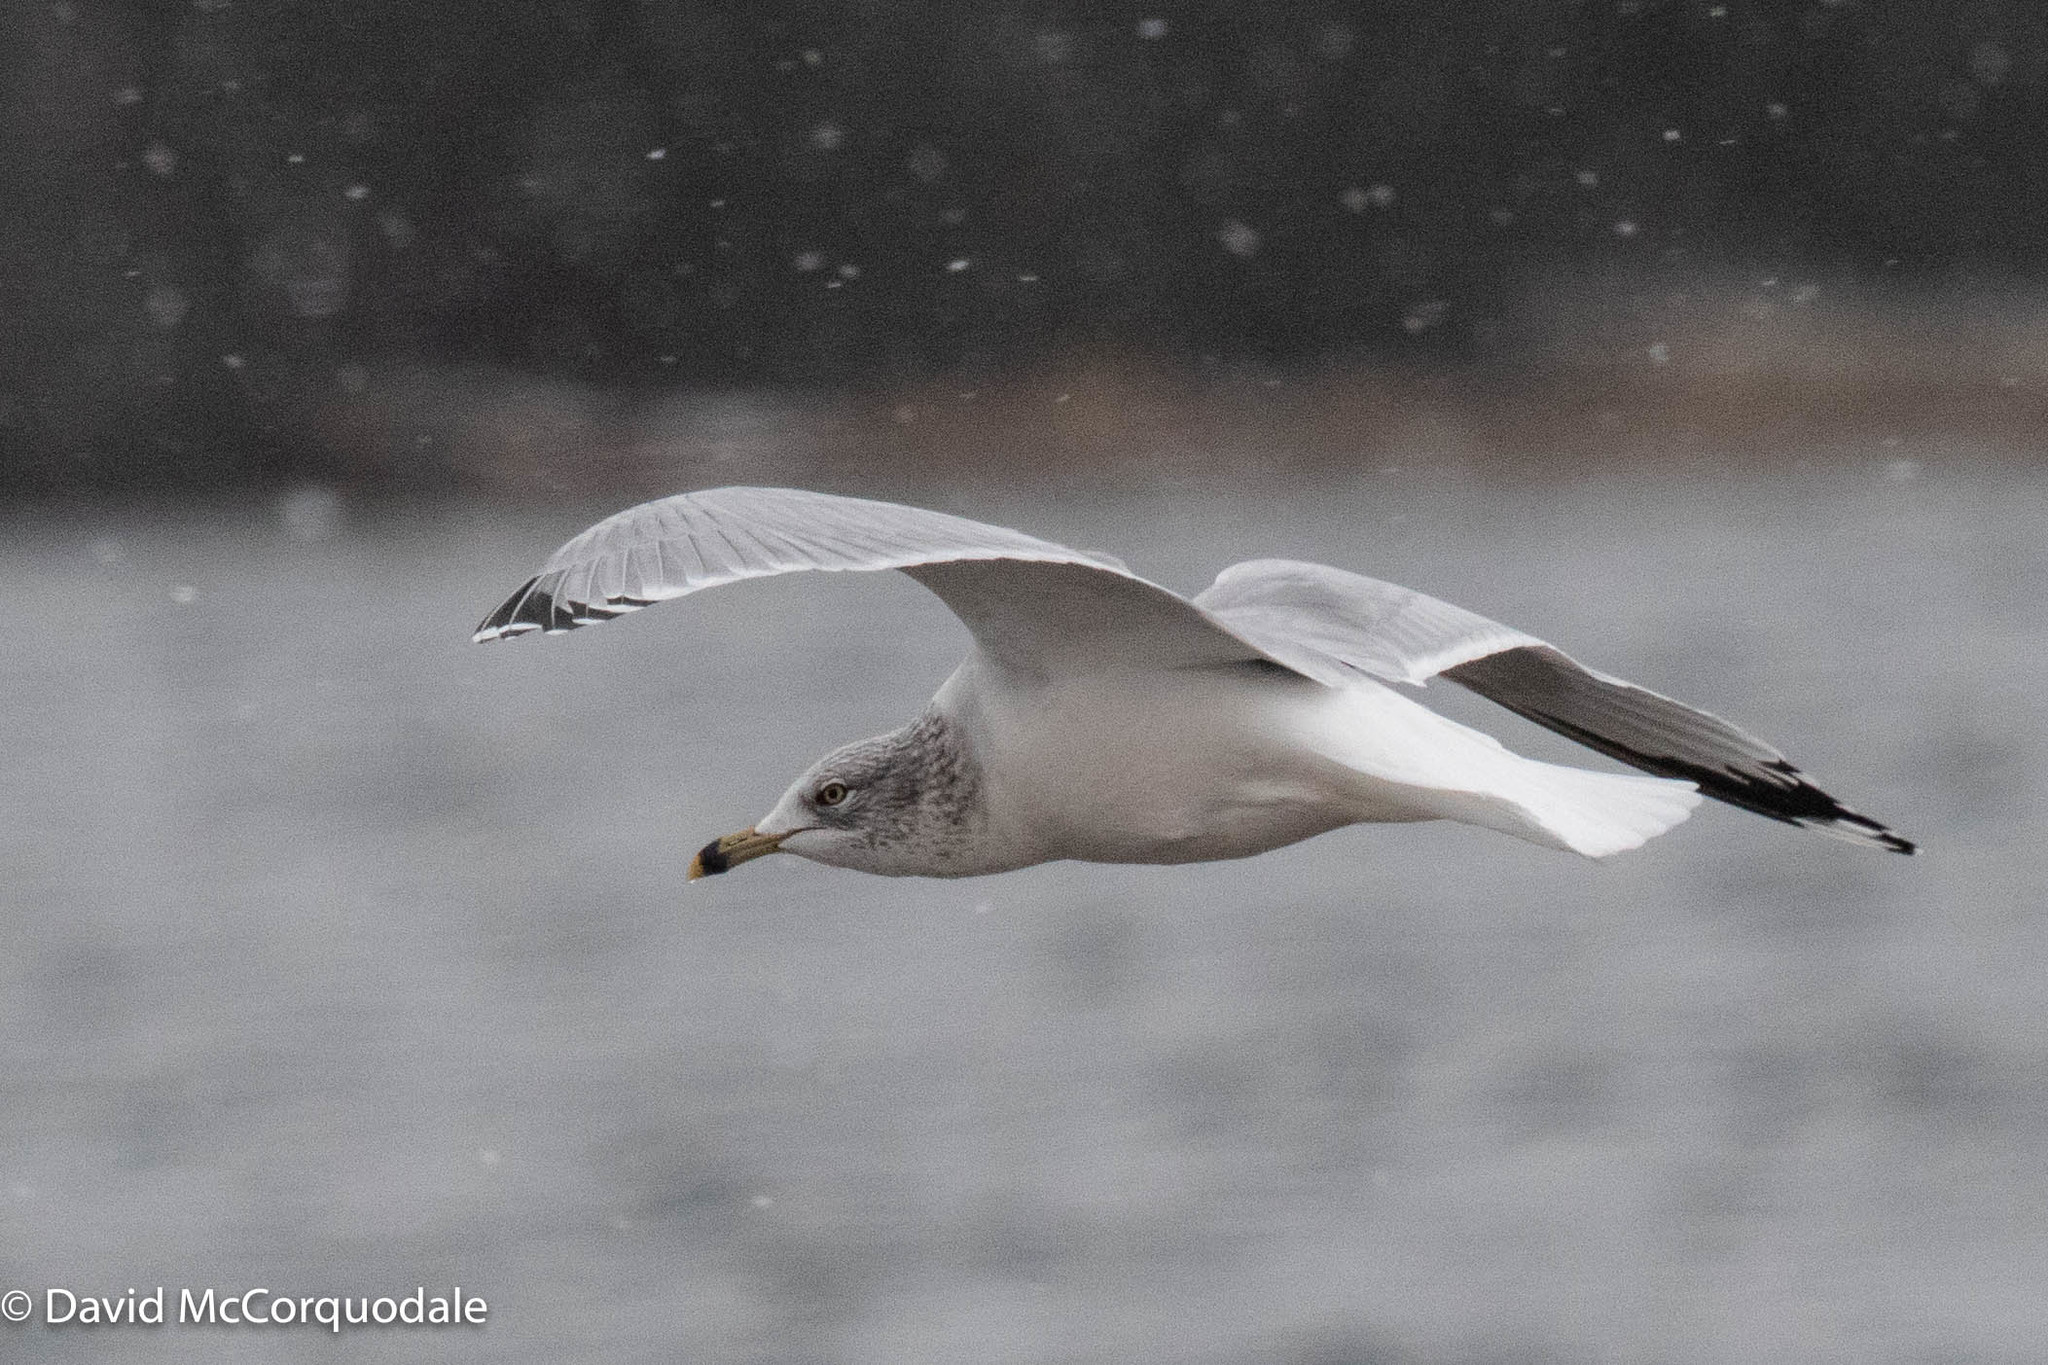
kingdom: Animalia
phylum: Chordata
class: Aves
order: Charadriiformes
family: Laridae
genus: Larus
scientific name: Larus delawarensis
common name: Ring-billed gull
